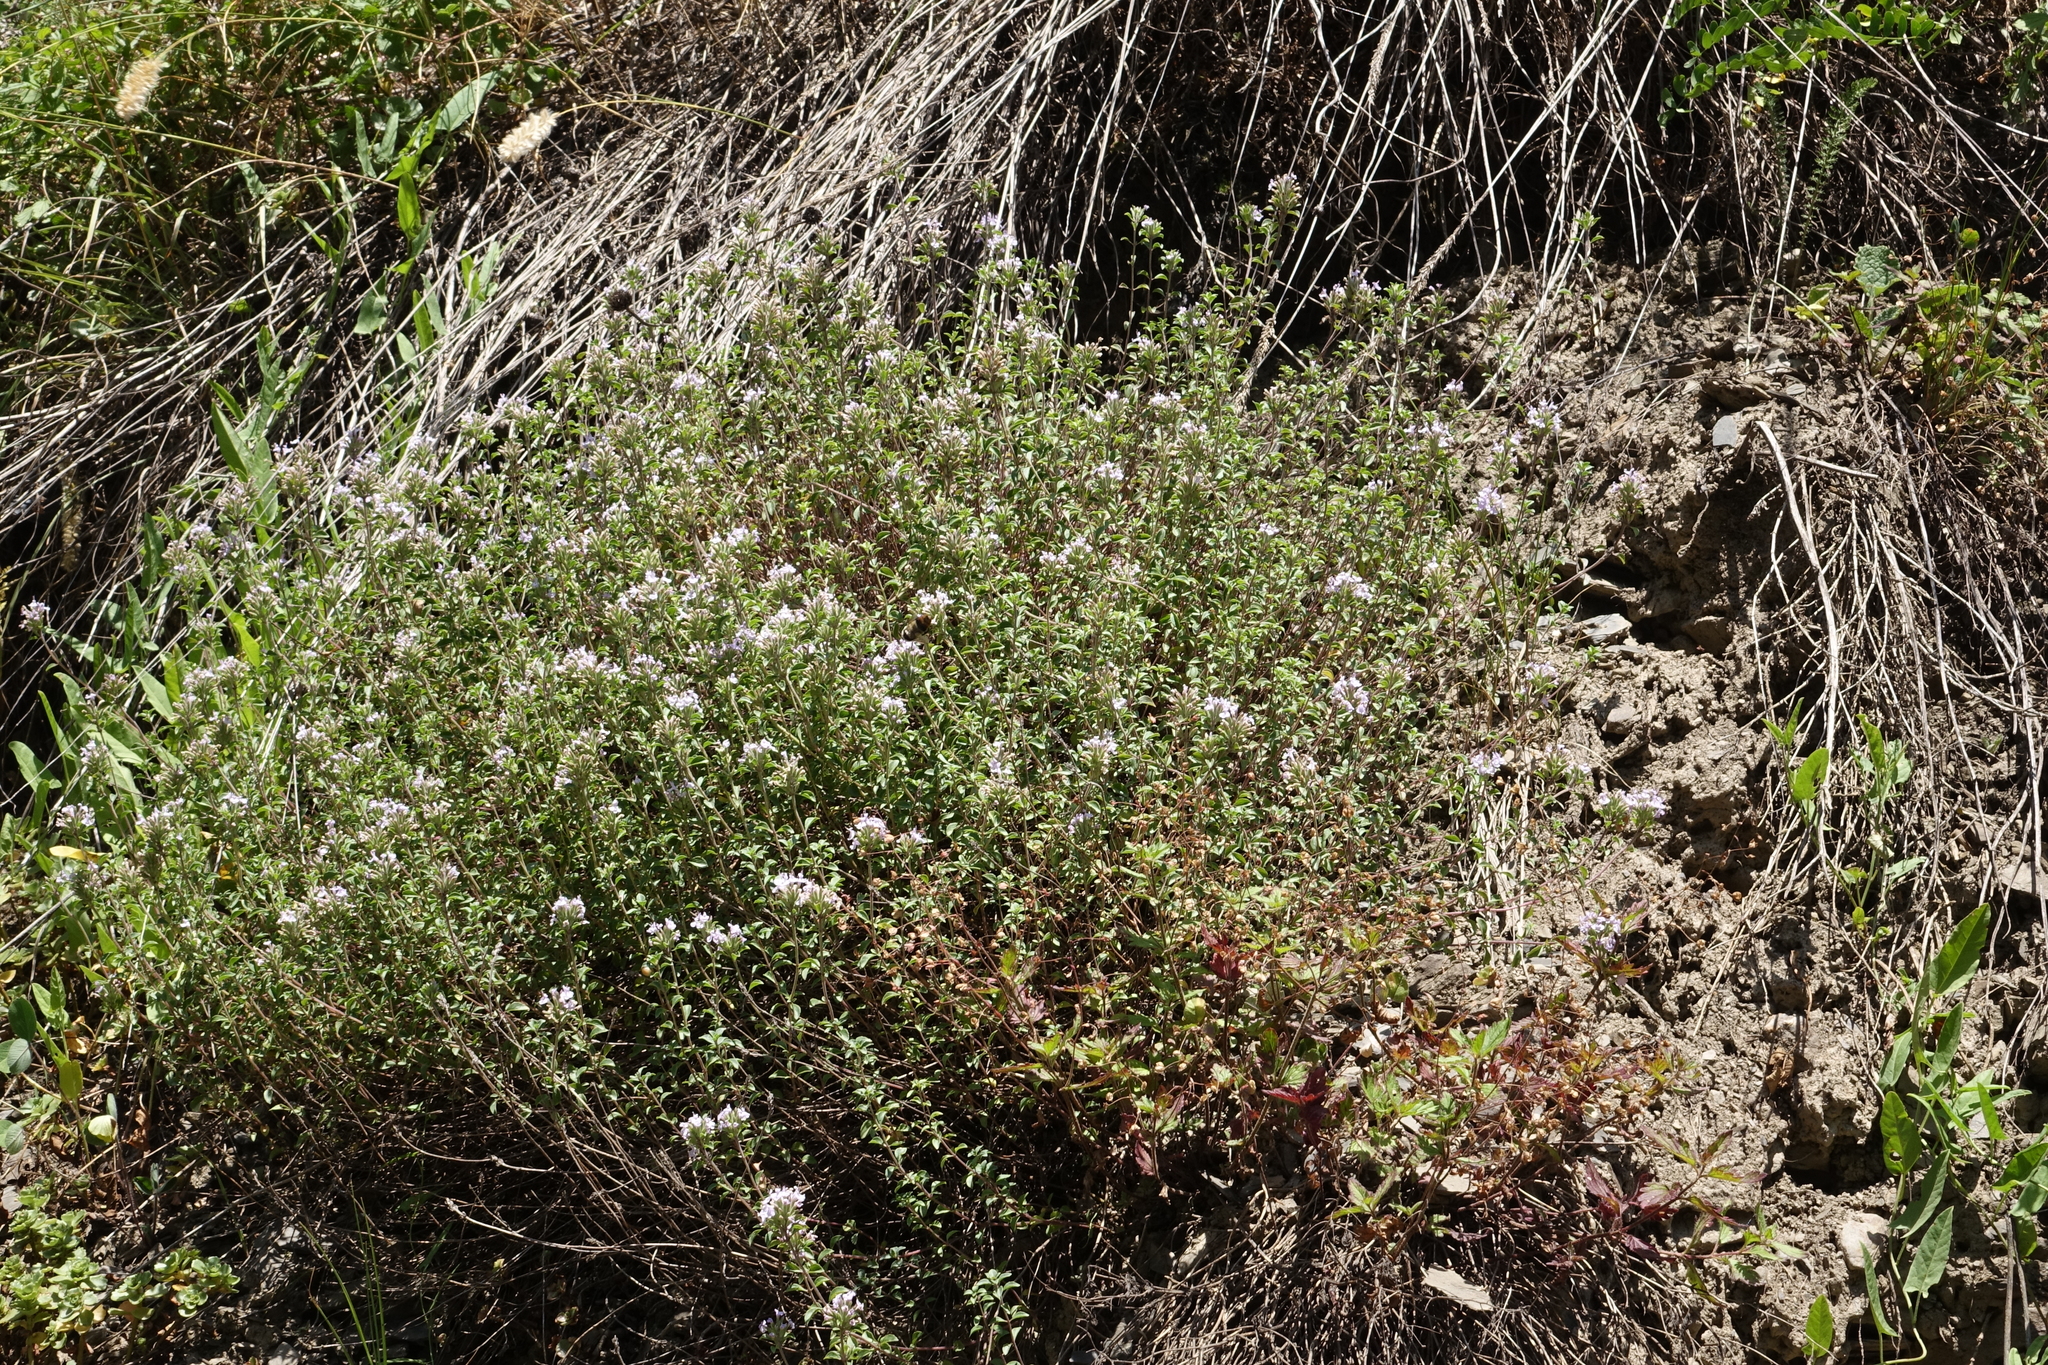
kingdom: Plantae
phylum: Tracheophyta
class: Magnoliopsida
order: Lamiales
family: Lamiaceae
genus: Ziziphora
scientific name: Ziziphora clinopodioides
